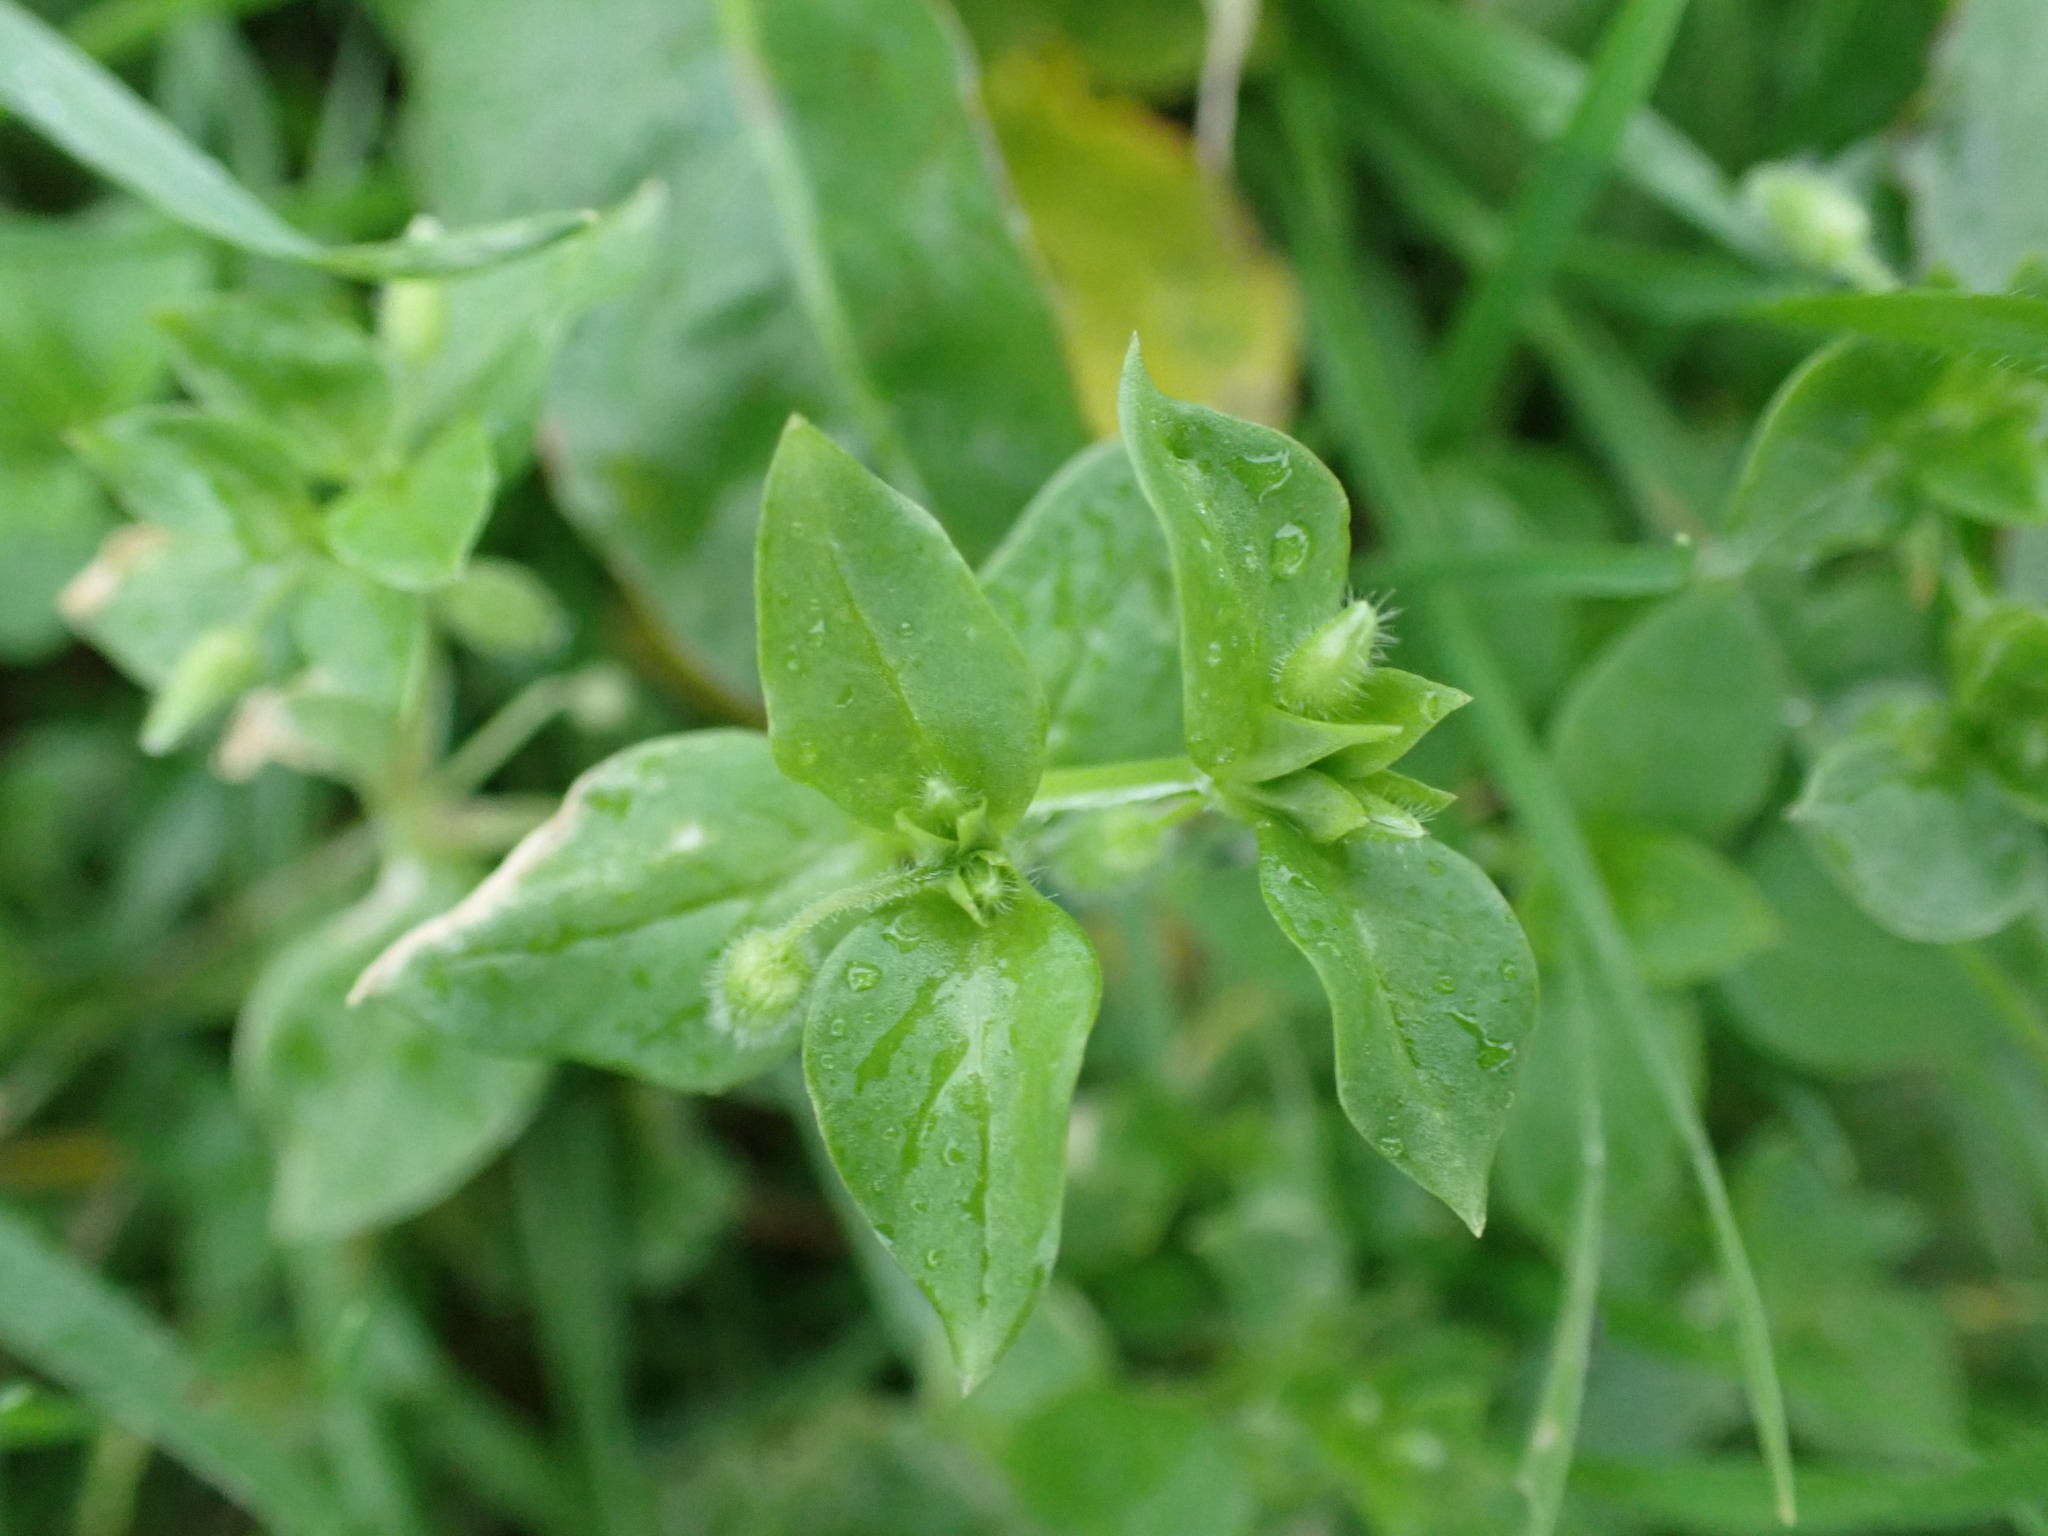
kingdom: Plantae
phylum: Tracheophyta
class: Magnoliopsida
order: Caryophyllales
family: Caryophyllaceae
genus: Stellaria
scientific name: Stellaria media
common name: Common chickweed
